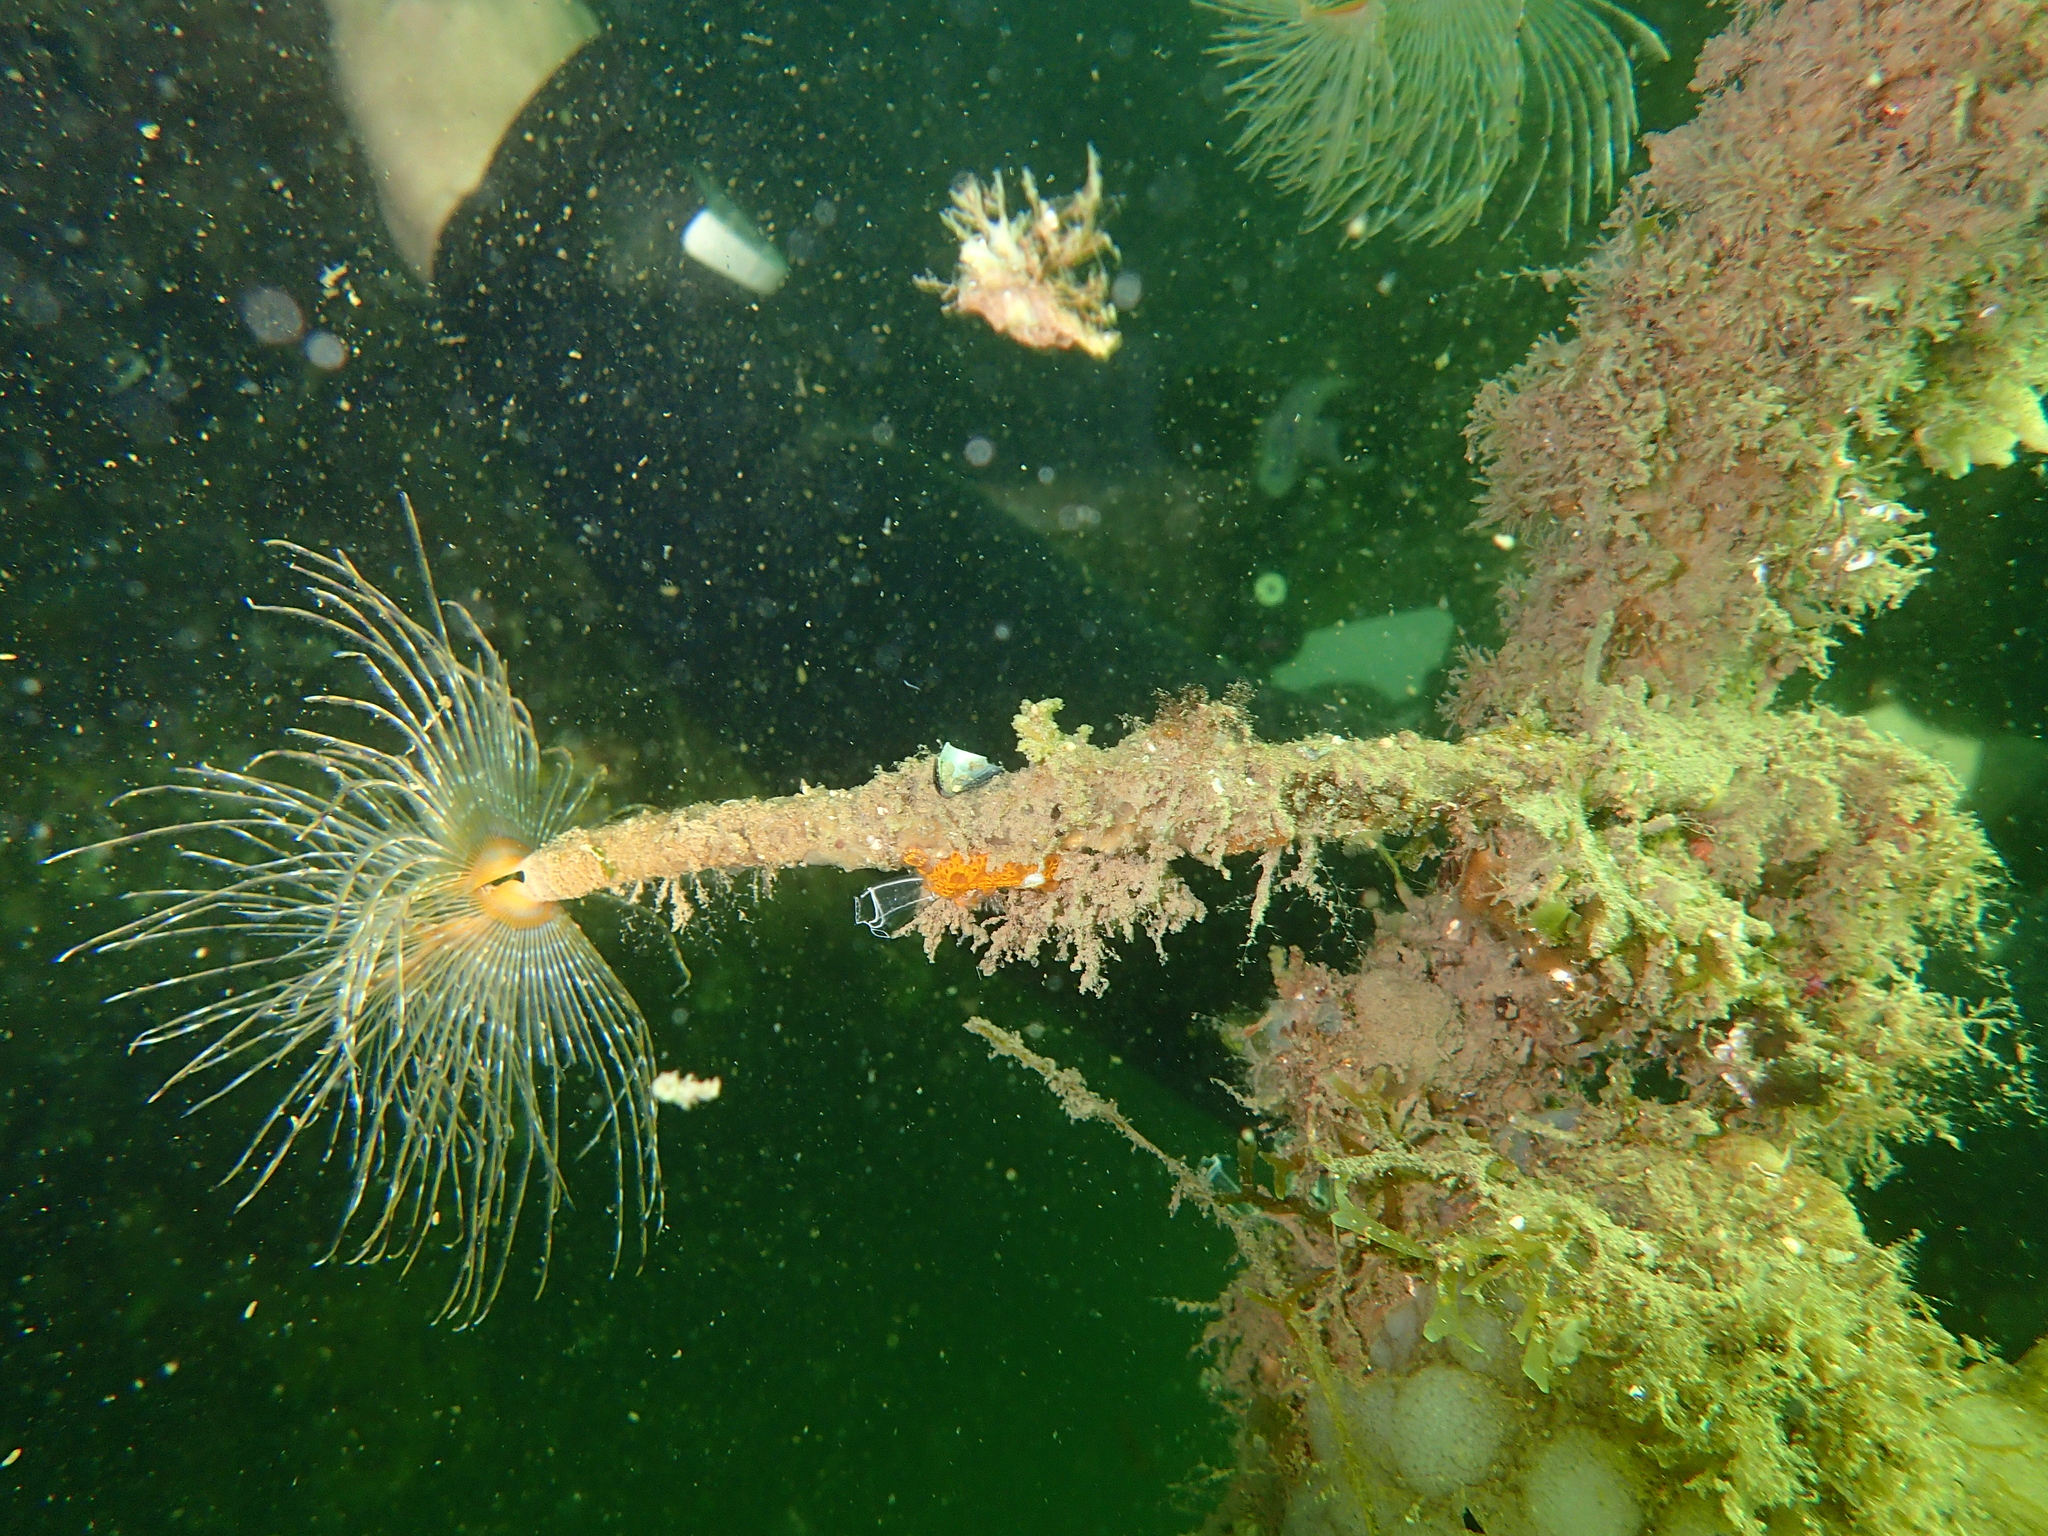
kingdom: Animalia
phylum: Annelida
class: Polychaeta
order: Sabellida
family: Sabellidae
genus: Sabella
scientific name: Sabella spallanzanii
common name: Feather duster worm
